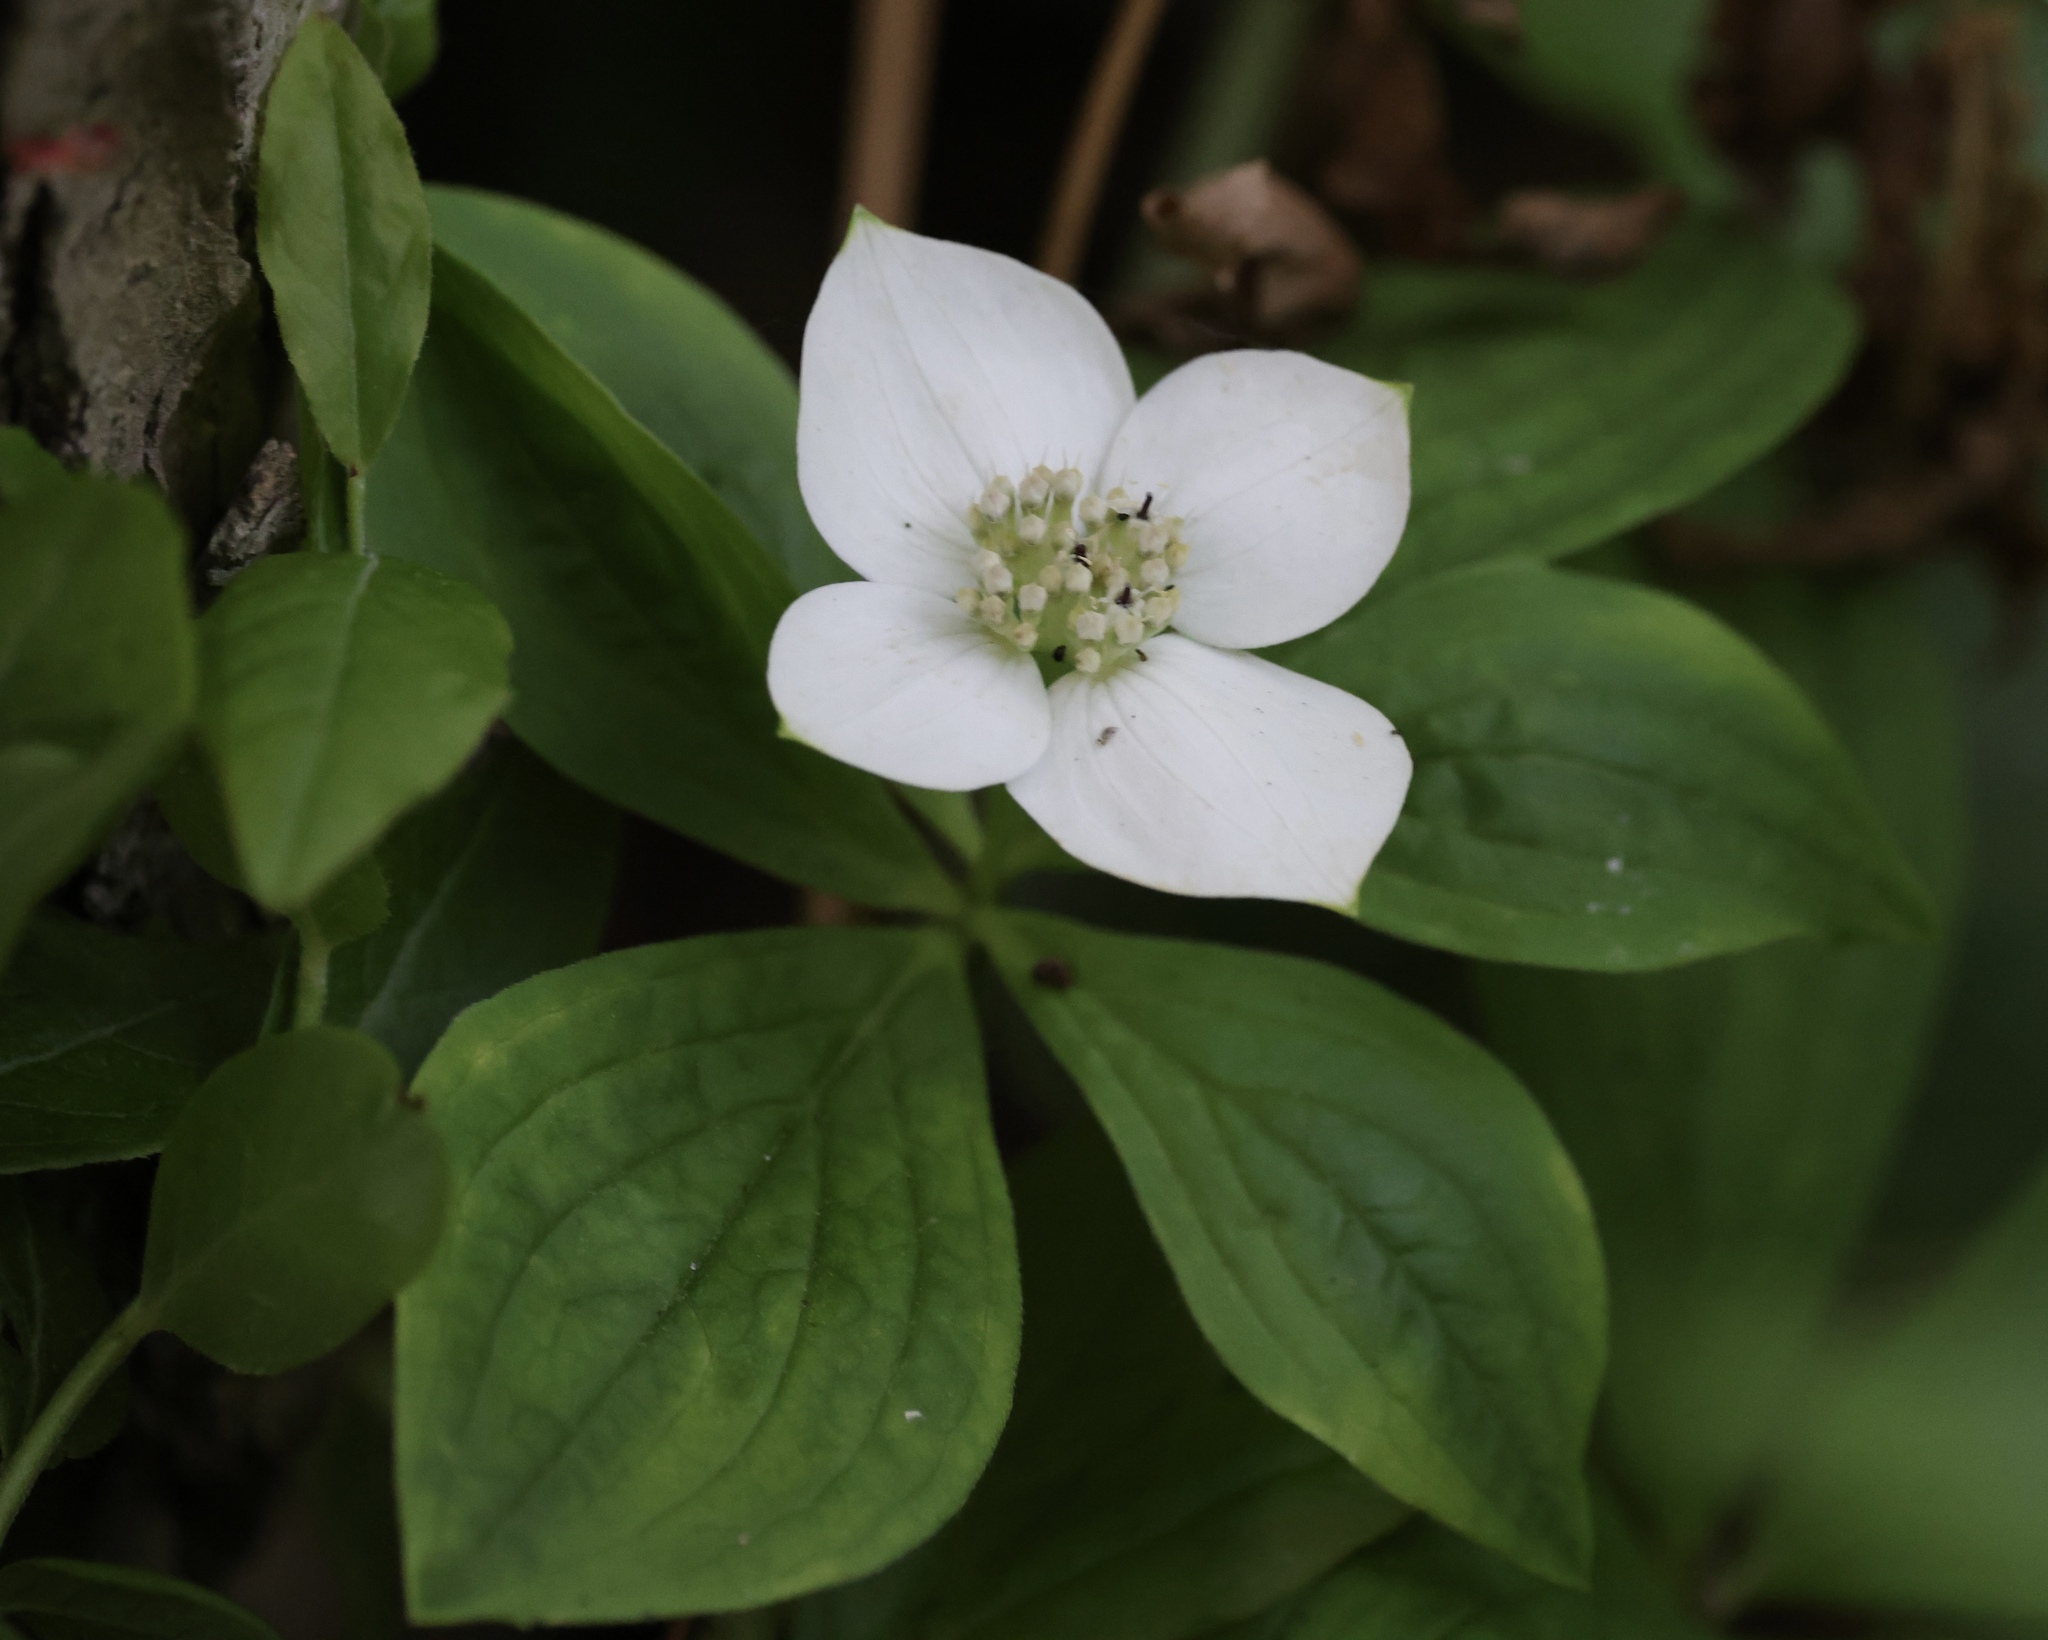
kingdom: Plantae
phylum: Tracheophyta
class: Magnoliopsida
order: Cornales
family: Cornaceae
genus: Cornus
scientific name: Cornus canadensis
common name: Creeping dogwood
